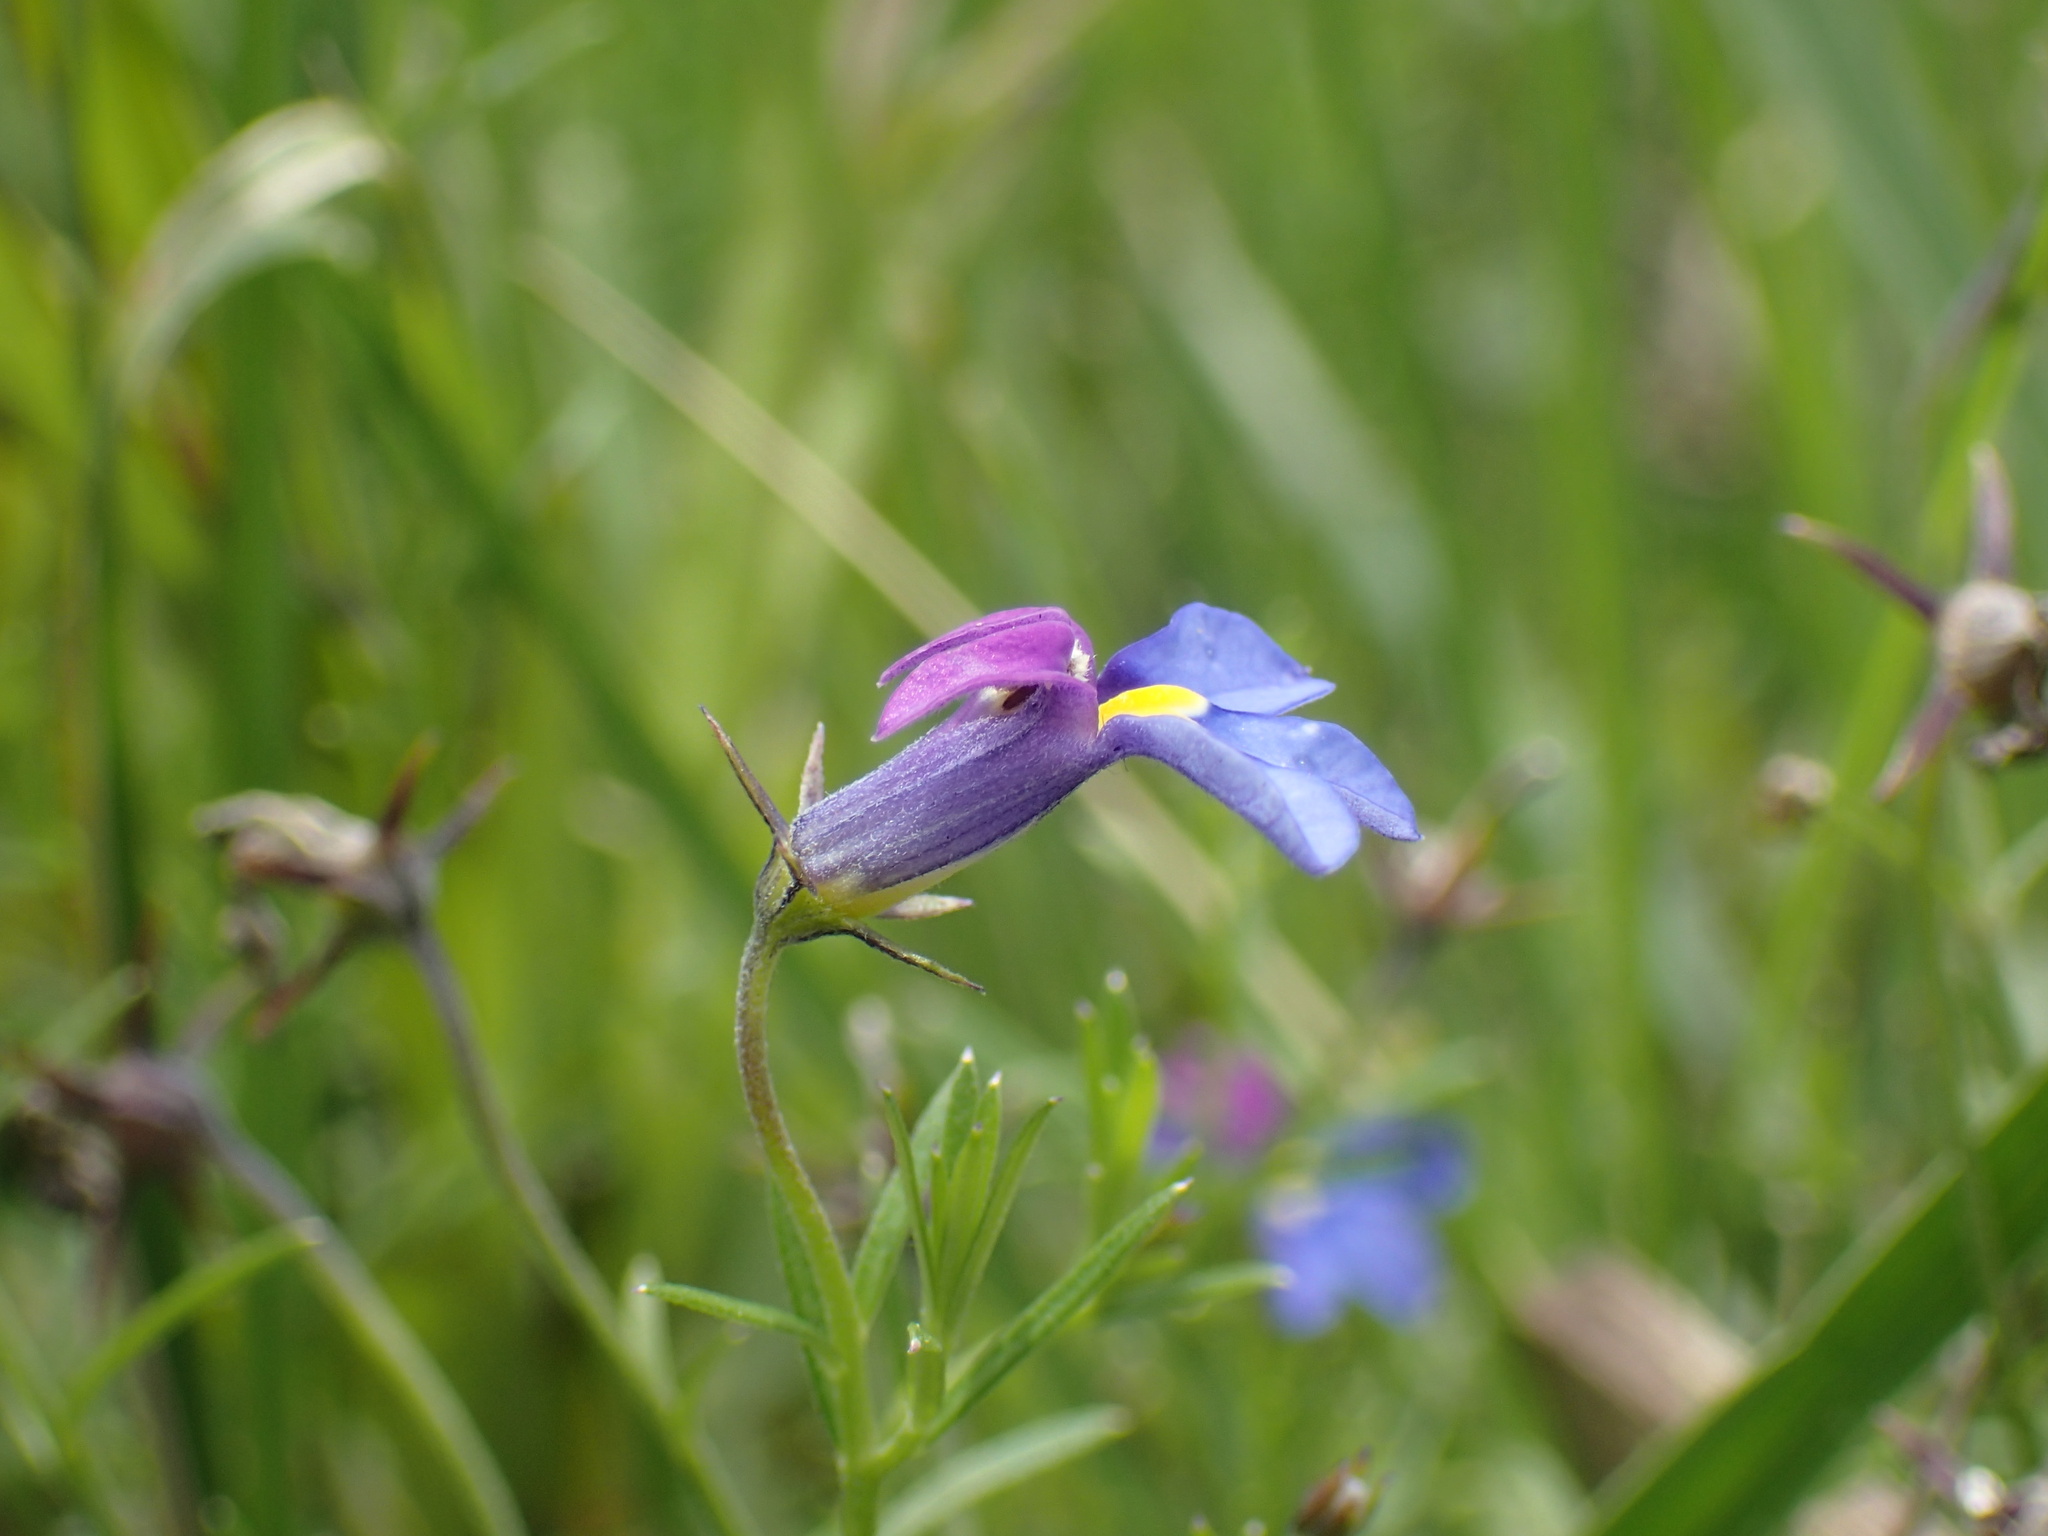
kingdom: Plantae
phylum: Tracheophyta
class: Magnoliopsida
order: Asterales
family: Campanulaceae
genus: Monopsis
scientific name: Monopsis decipiens
